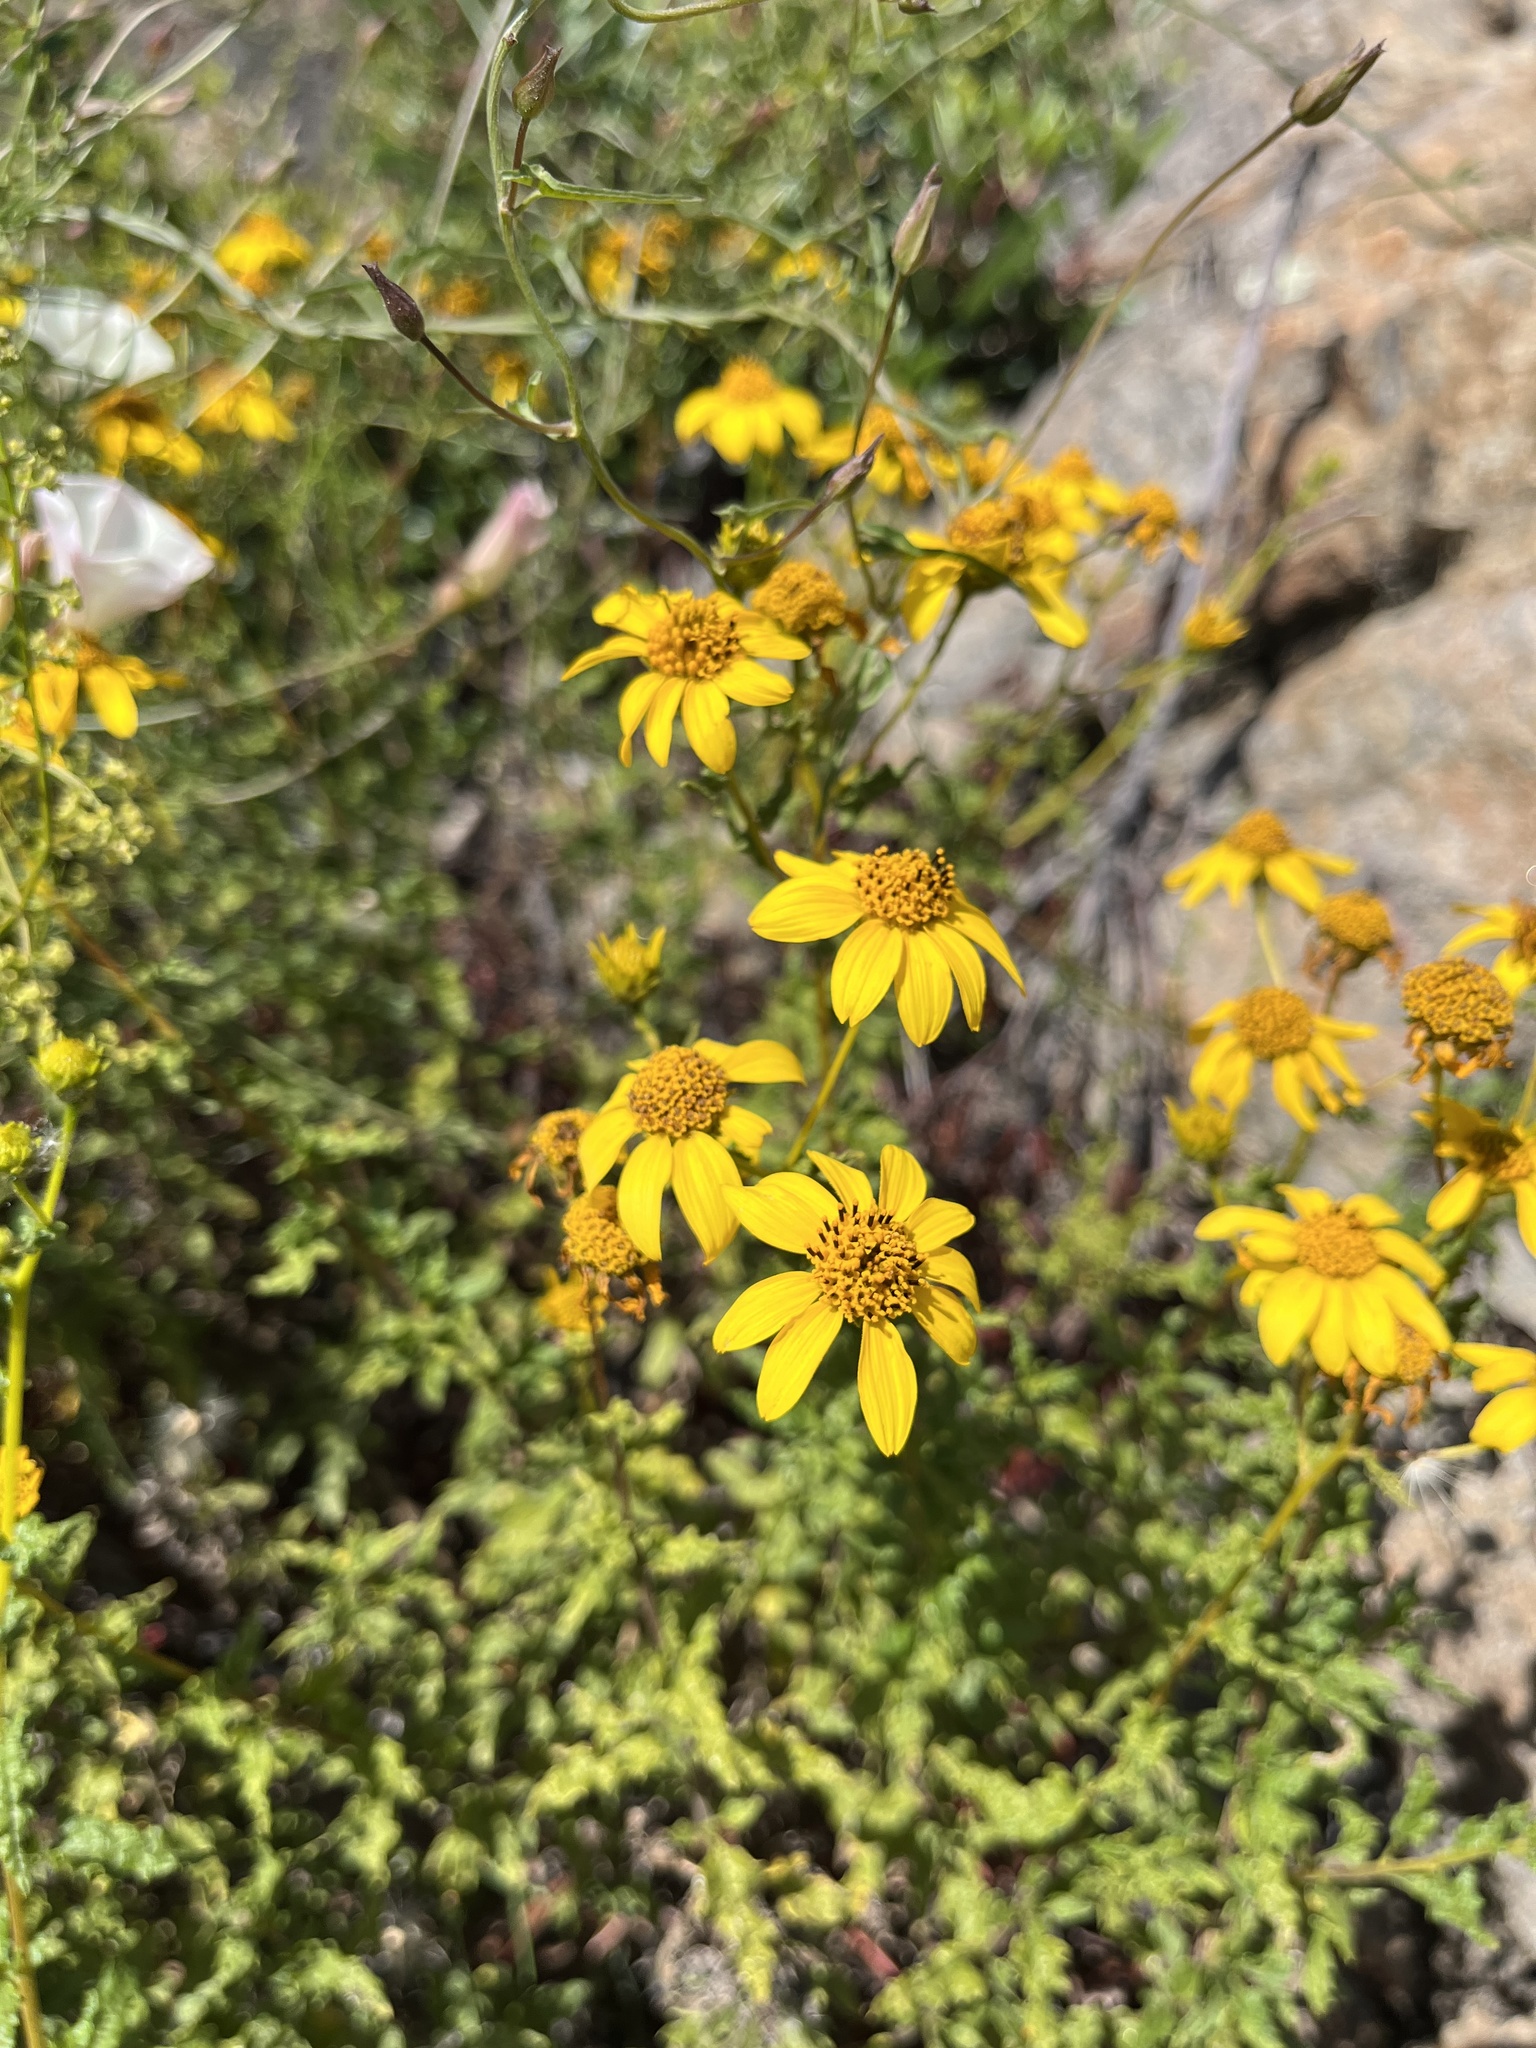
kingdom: Plantae
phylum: Tracheophyta
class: Magnoliopsida
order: Asterales
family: Asteraceae
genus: Bahiopsis
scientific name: Bahiopsis laciniata
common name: San diego county viguiera
